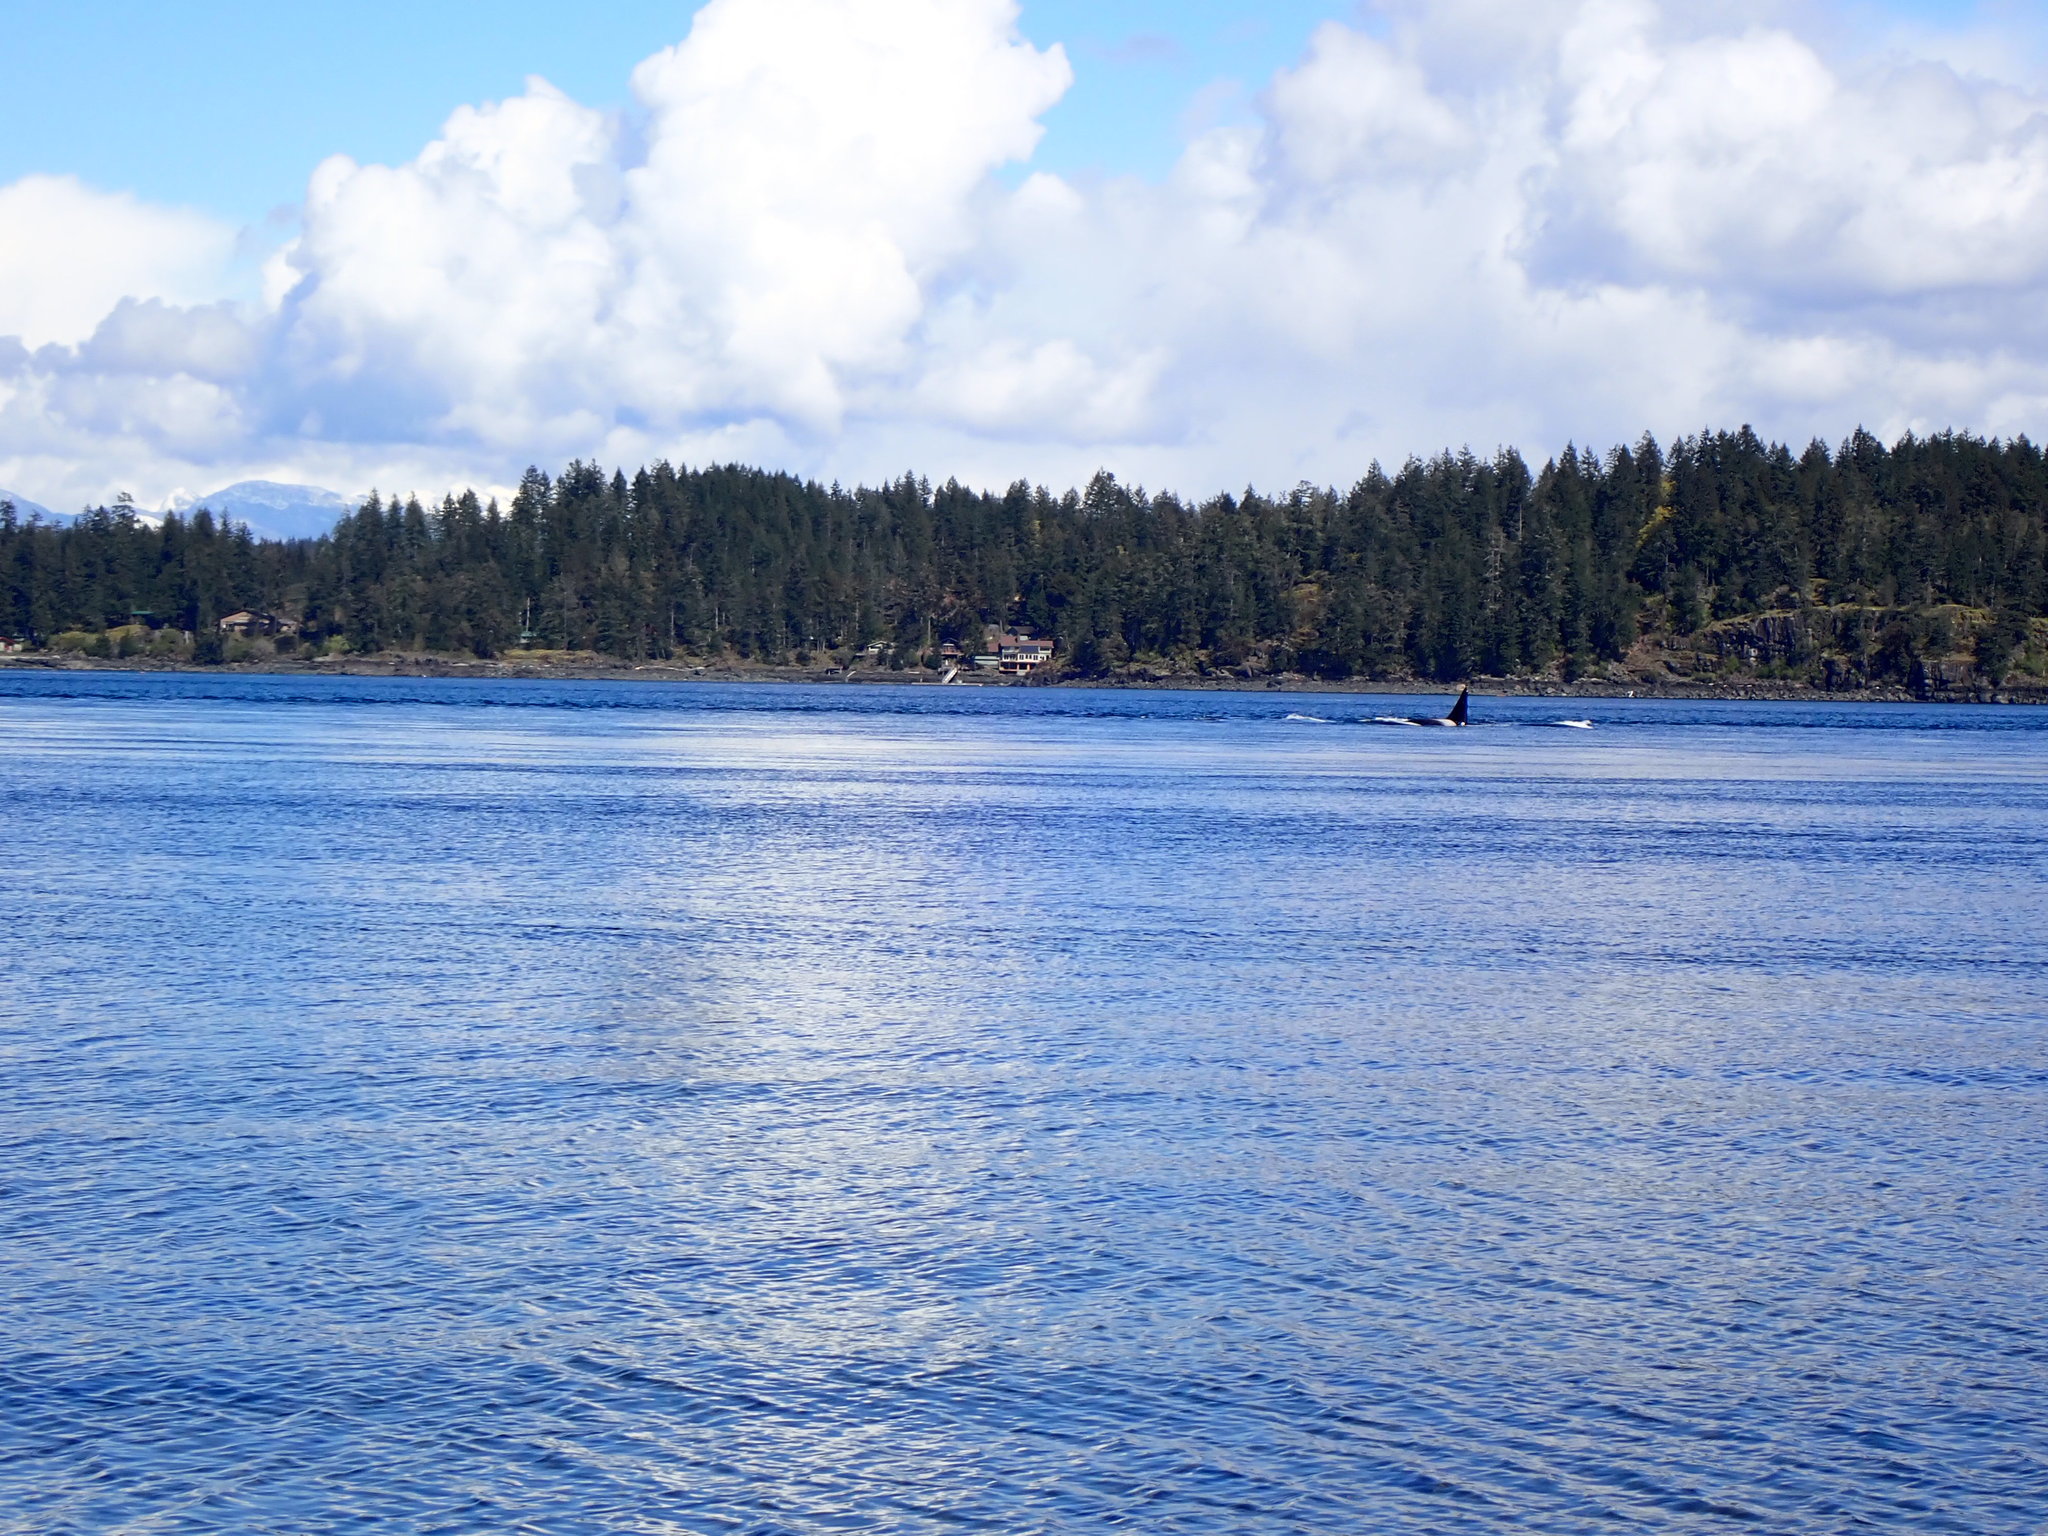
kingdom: Animalia
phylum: Chordata
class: Mammalia
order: Cetacea
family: Delphinidae
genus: Orcinus
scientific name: Orcinus orca
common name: Killer whale
